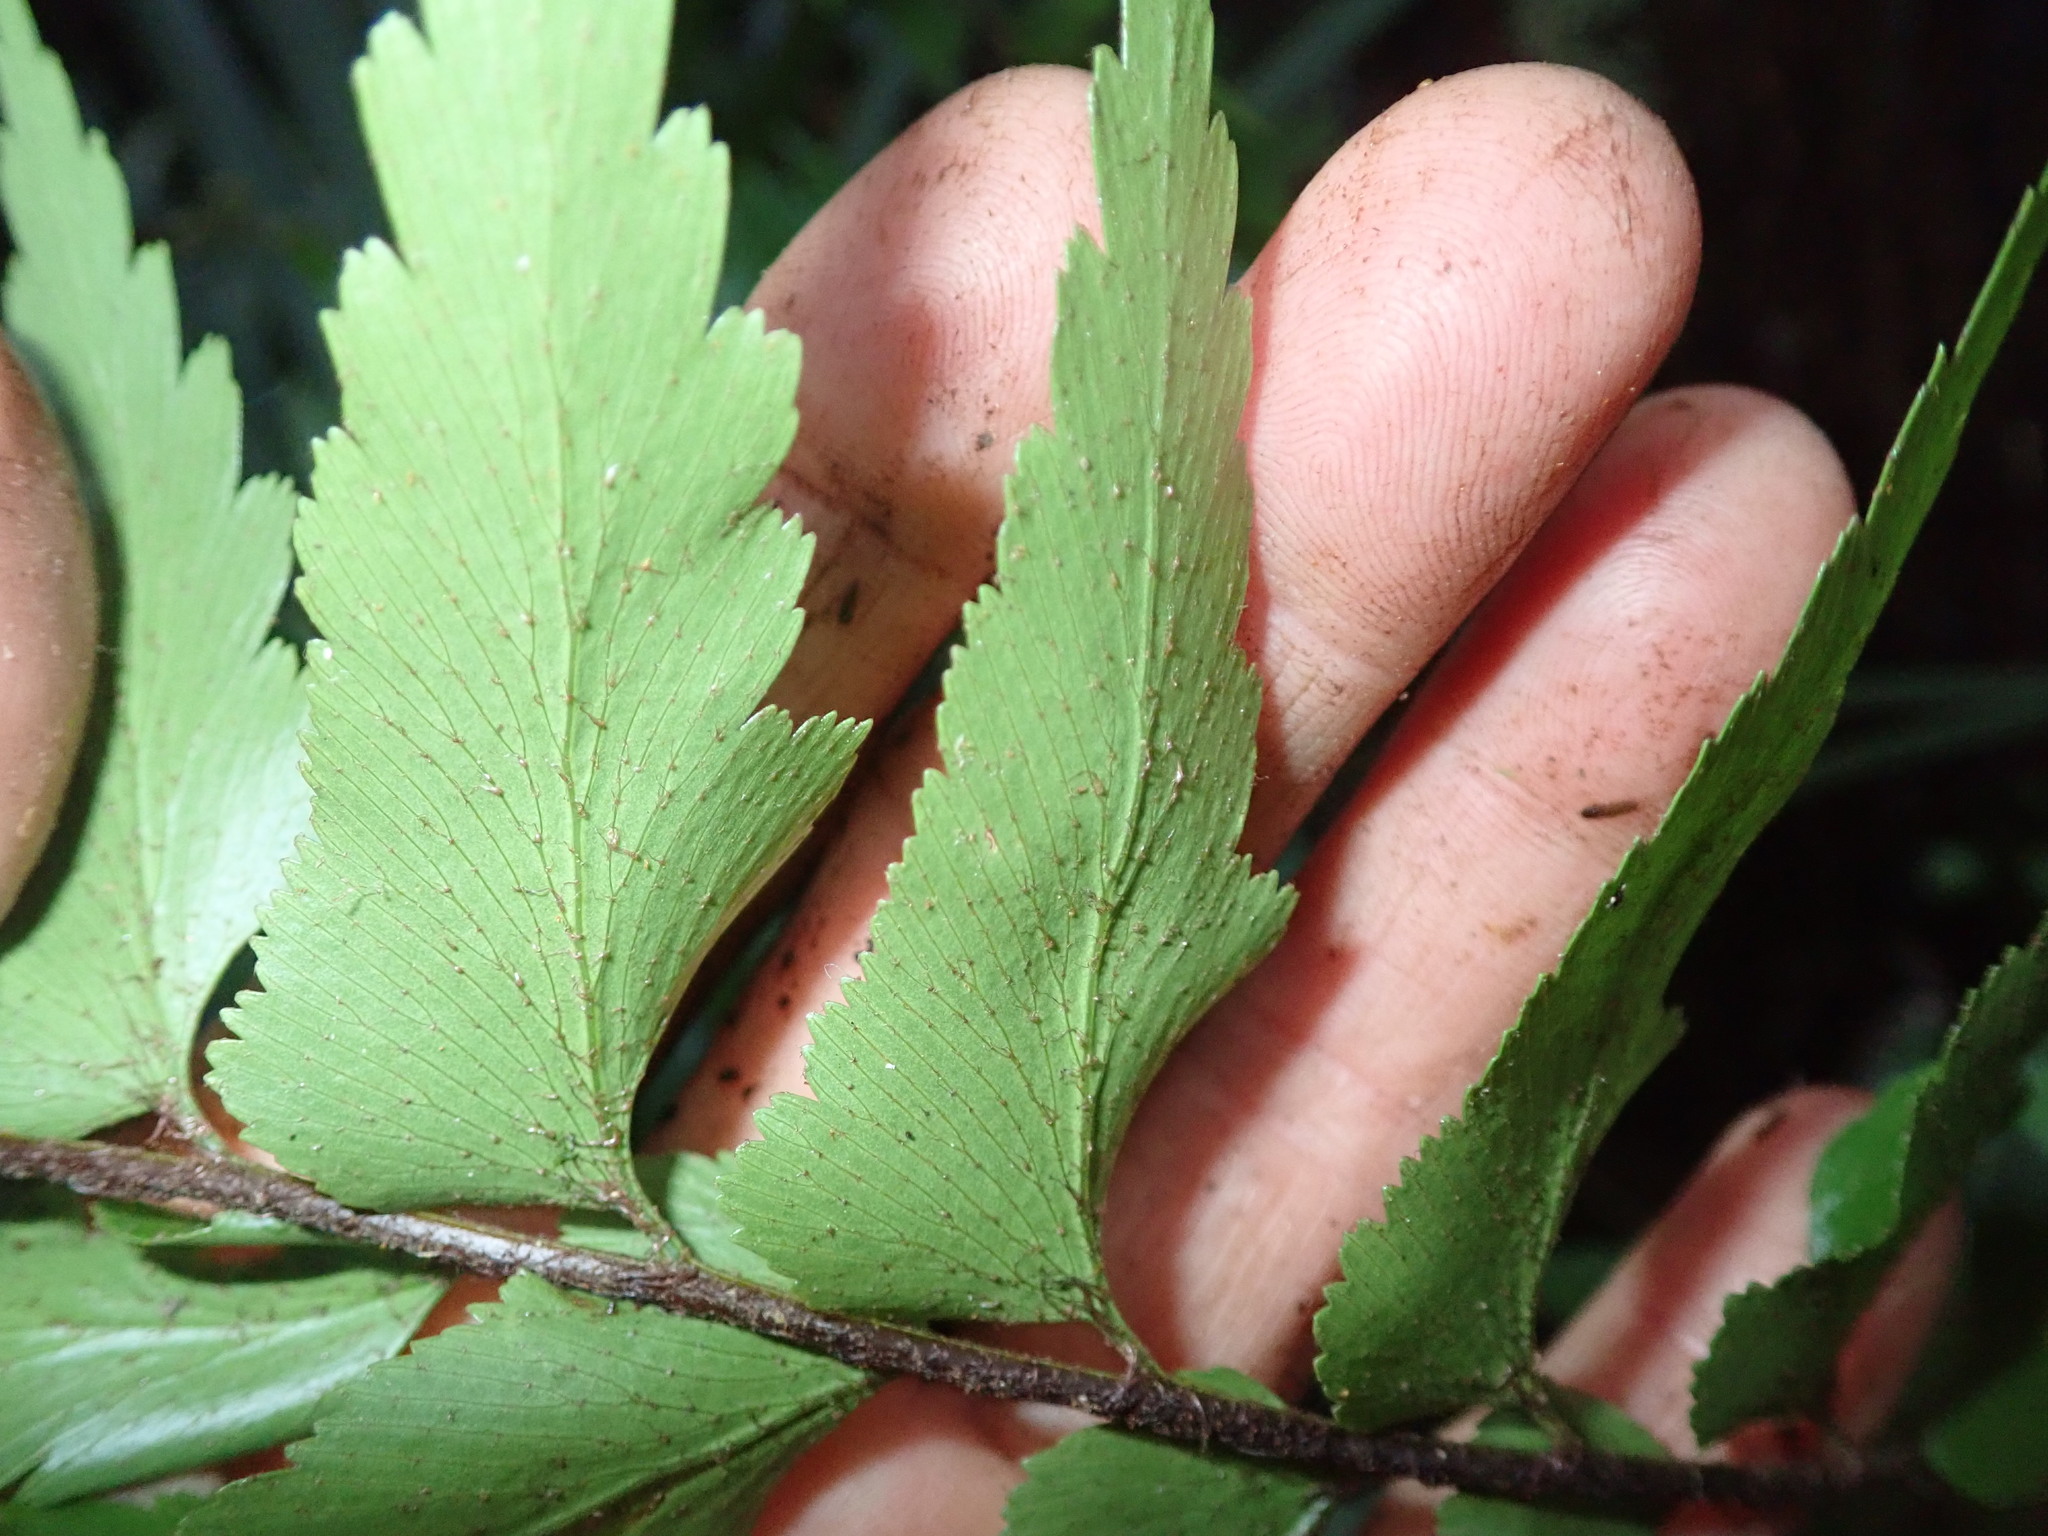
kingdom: Plantae
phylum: Tracheophyta
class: Polypodiopsida
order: Polypodiales
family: Aspleniaceae
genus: Asplenium
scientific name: Asplenium polyodon
